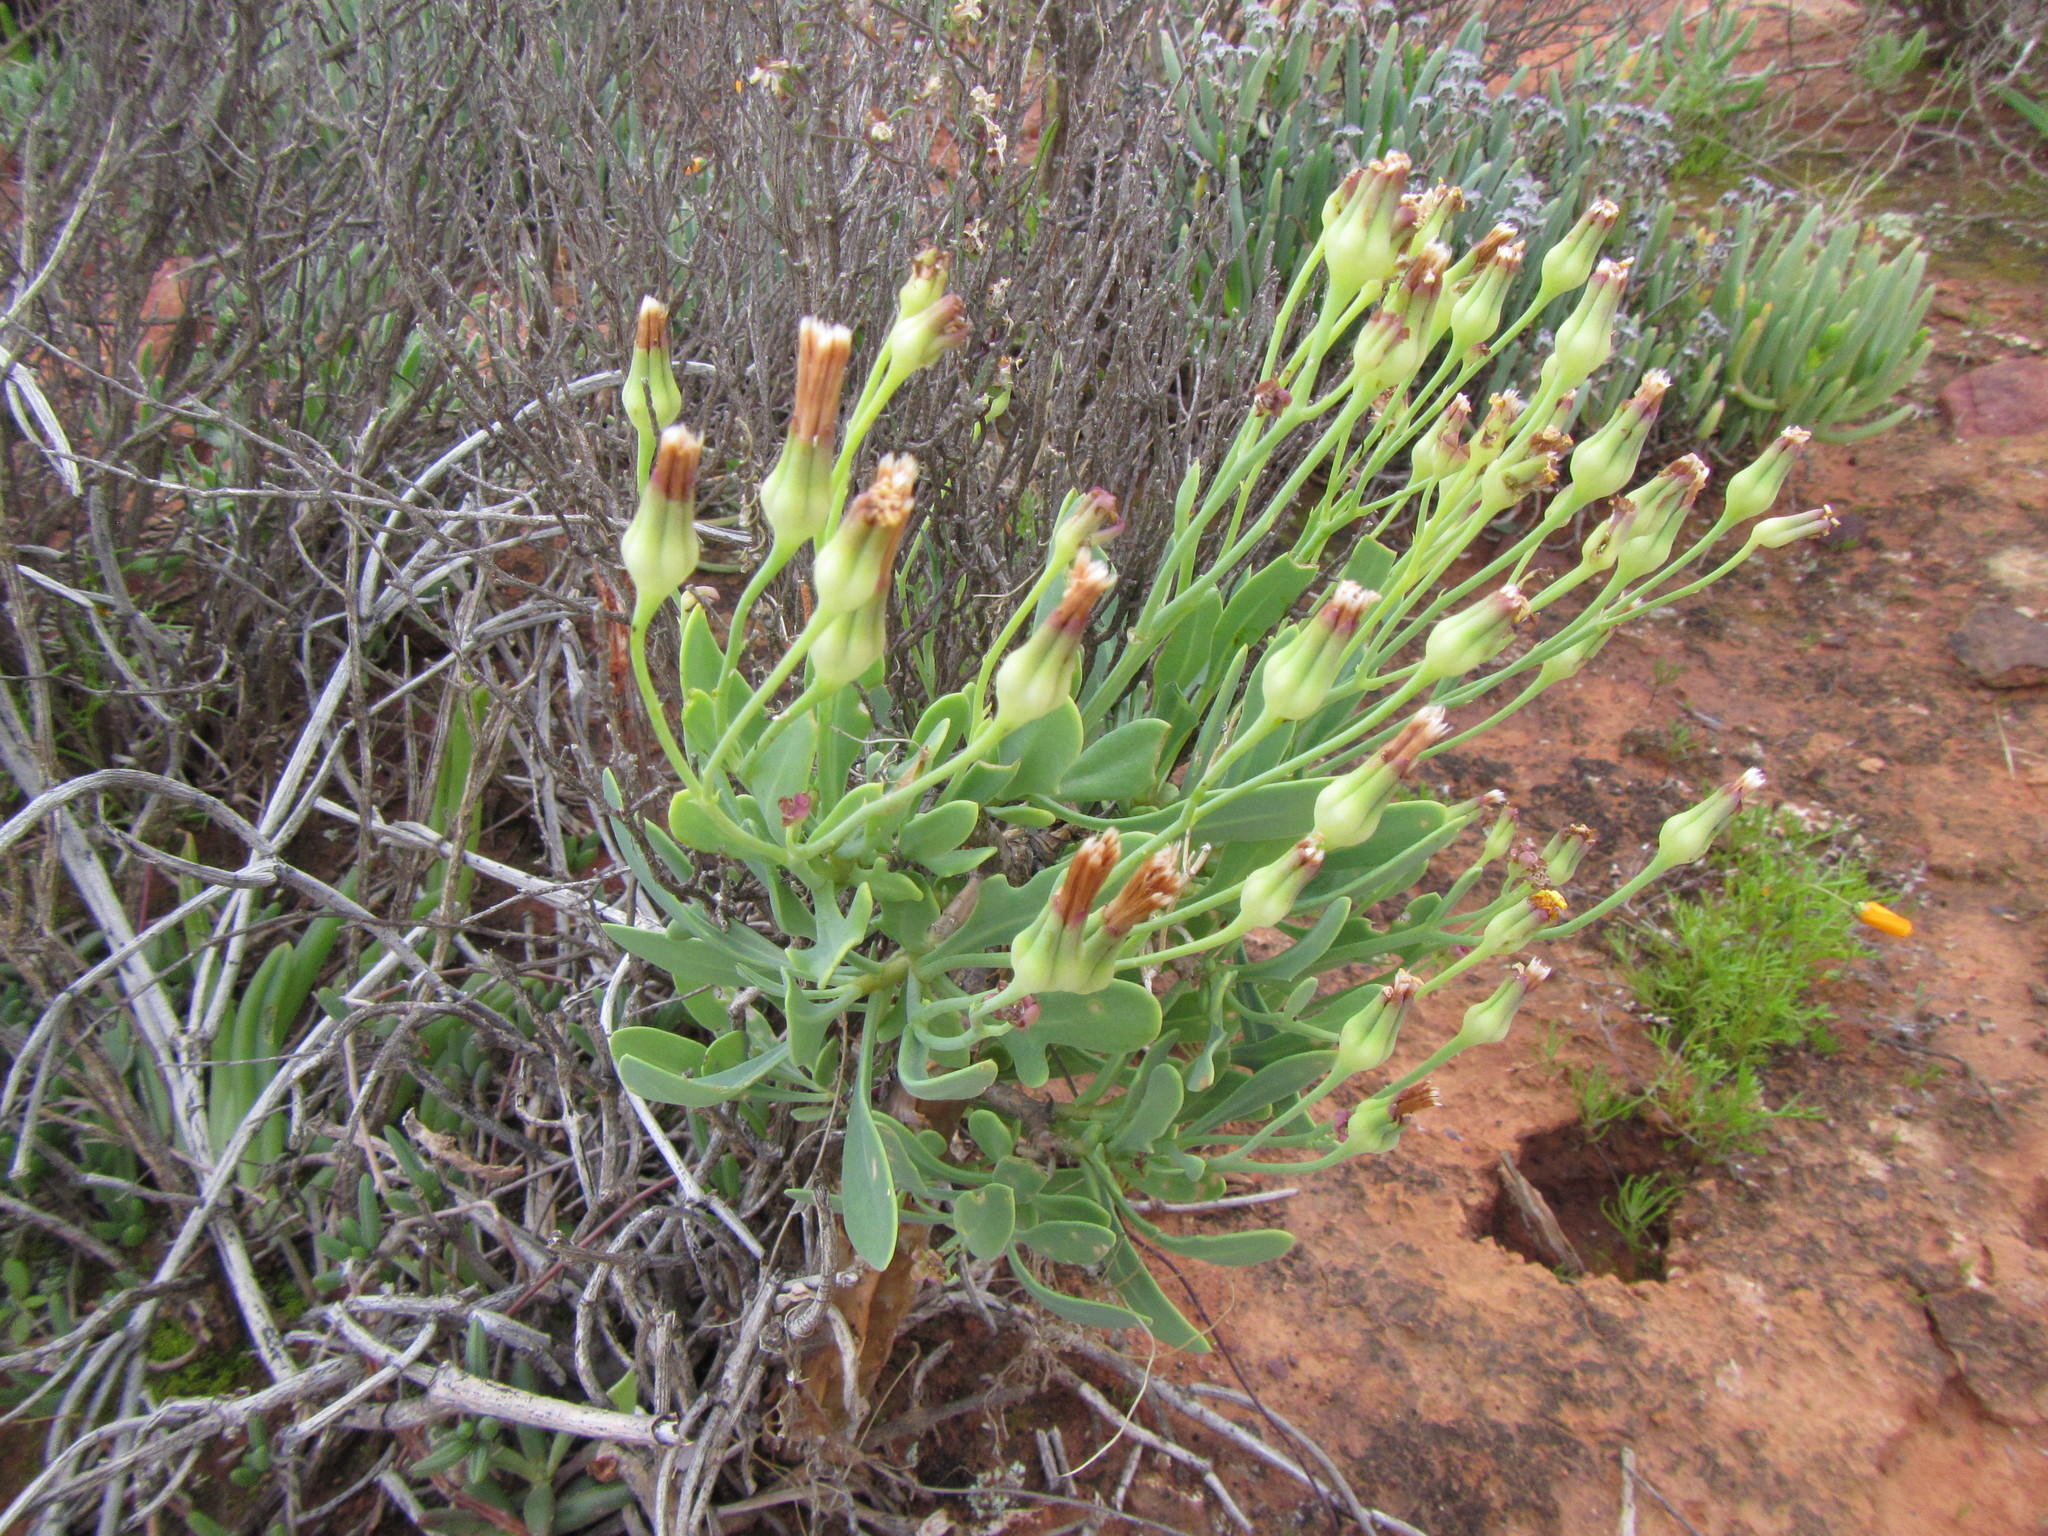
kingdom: Plantae
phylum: Tracheophyta
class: Magnoliopsida
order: Asterales
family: Asteraceae
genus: Othonna
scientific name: Othonna quercifolia
